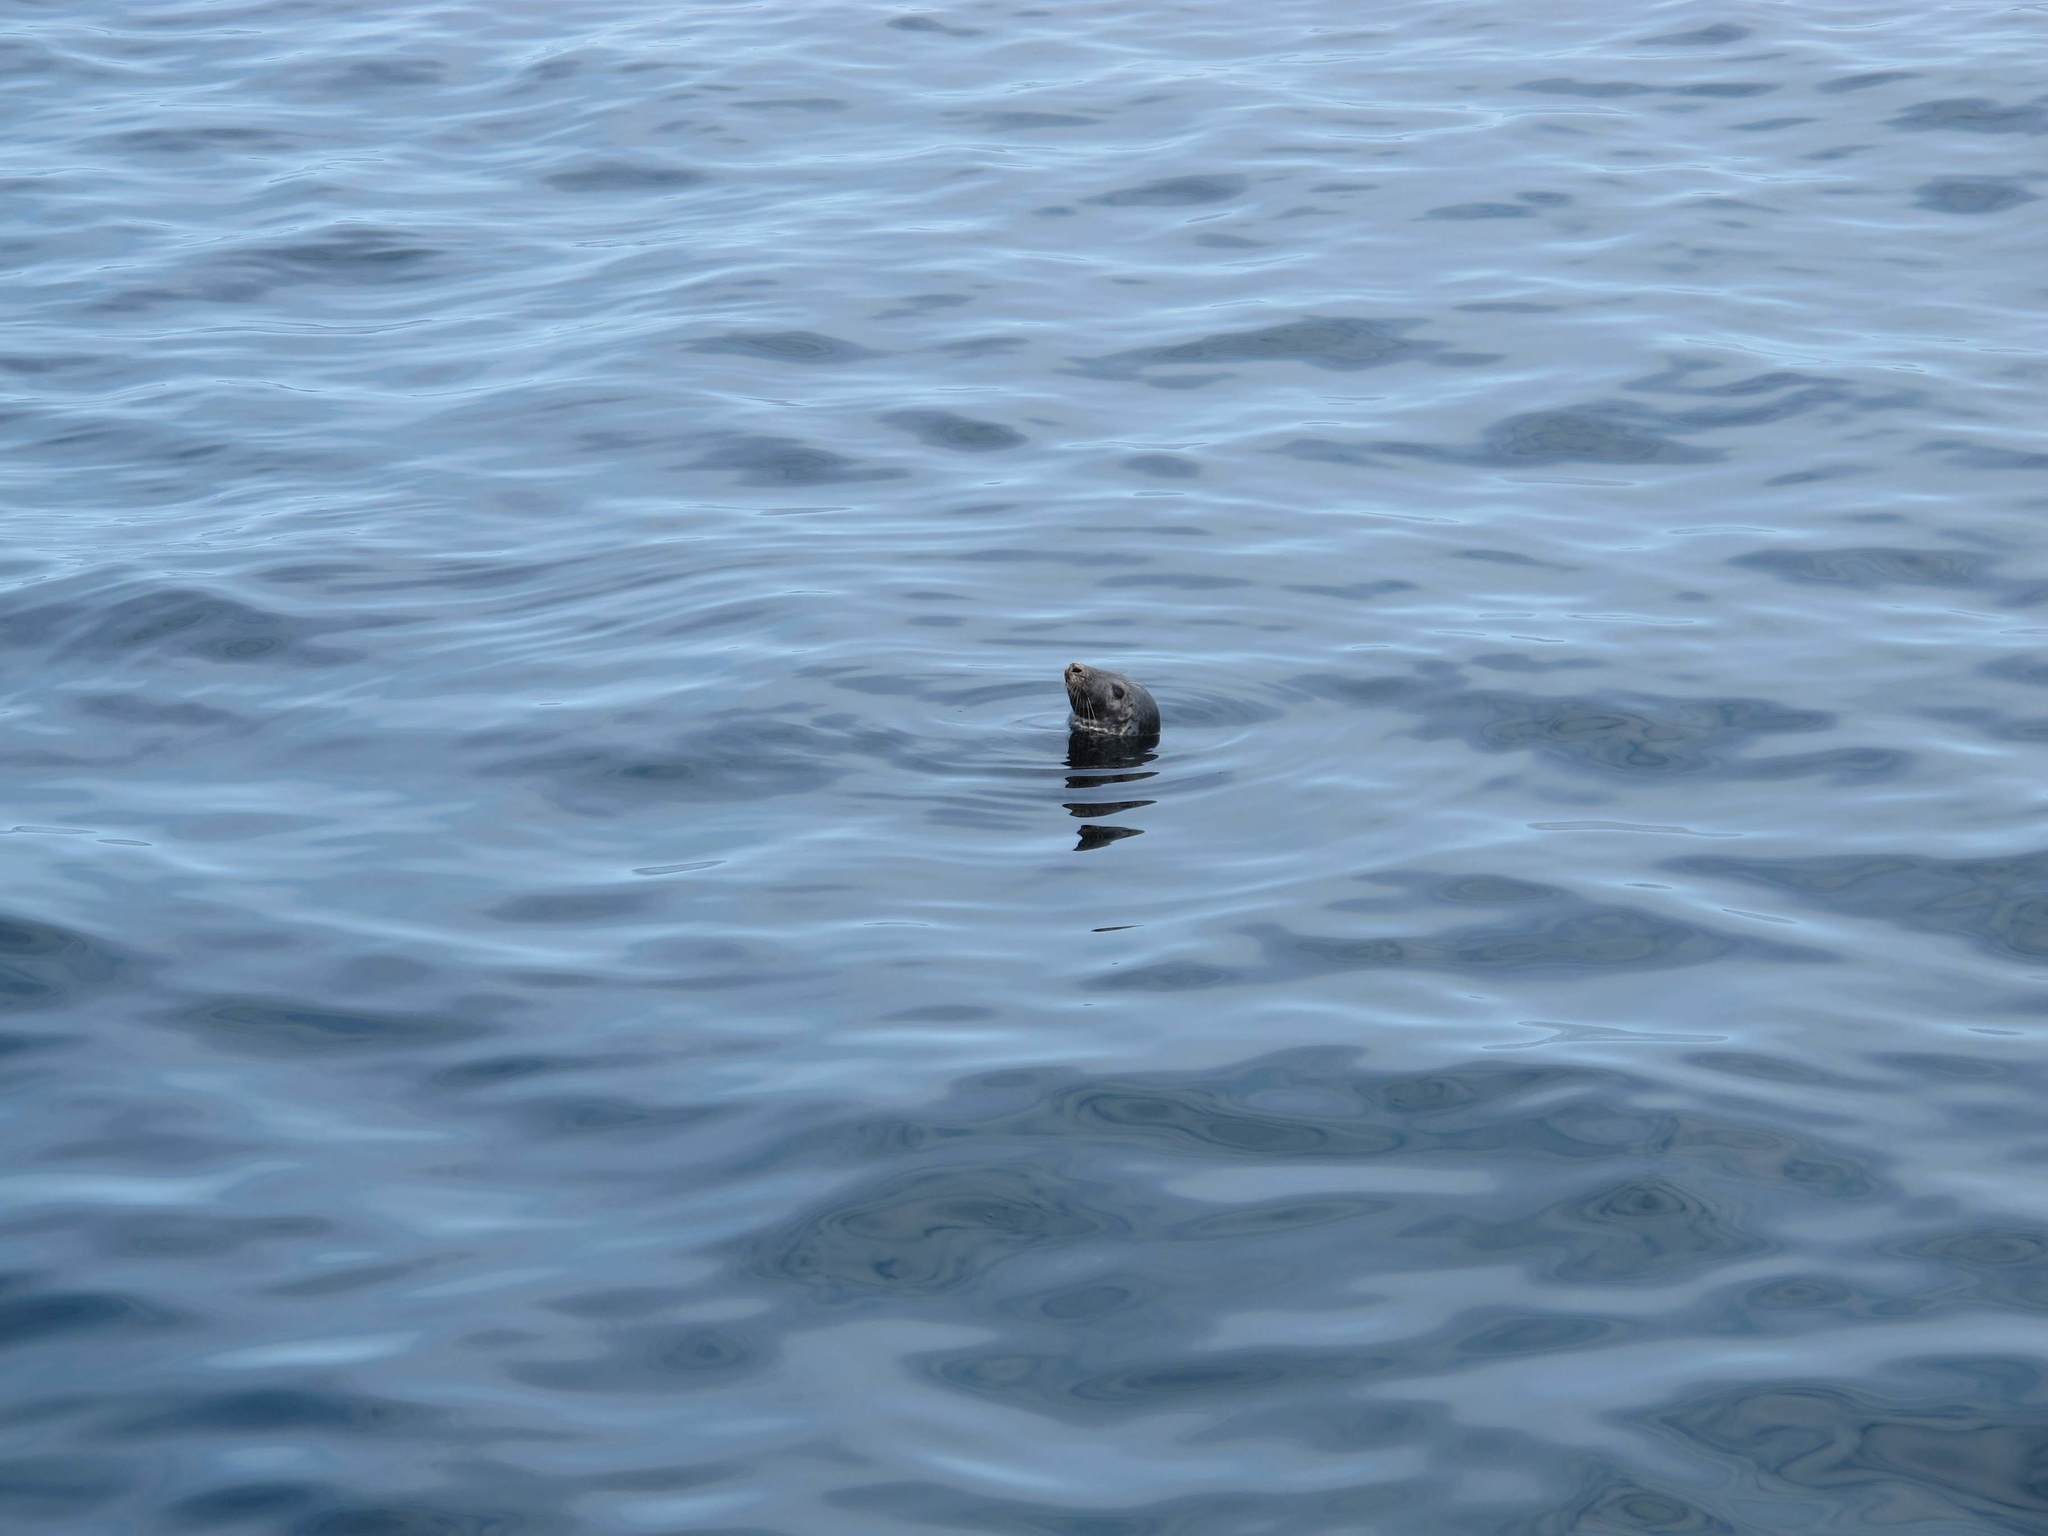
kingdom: Animalia
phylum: Chordata
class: Mammalia
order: Carnivora
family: Phocidae
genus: Halichoerus
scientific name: Halichoerus grypus
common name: Grey seal
